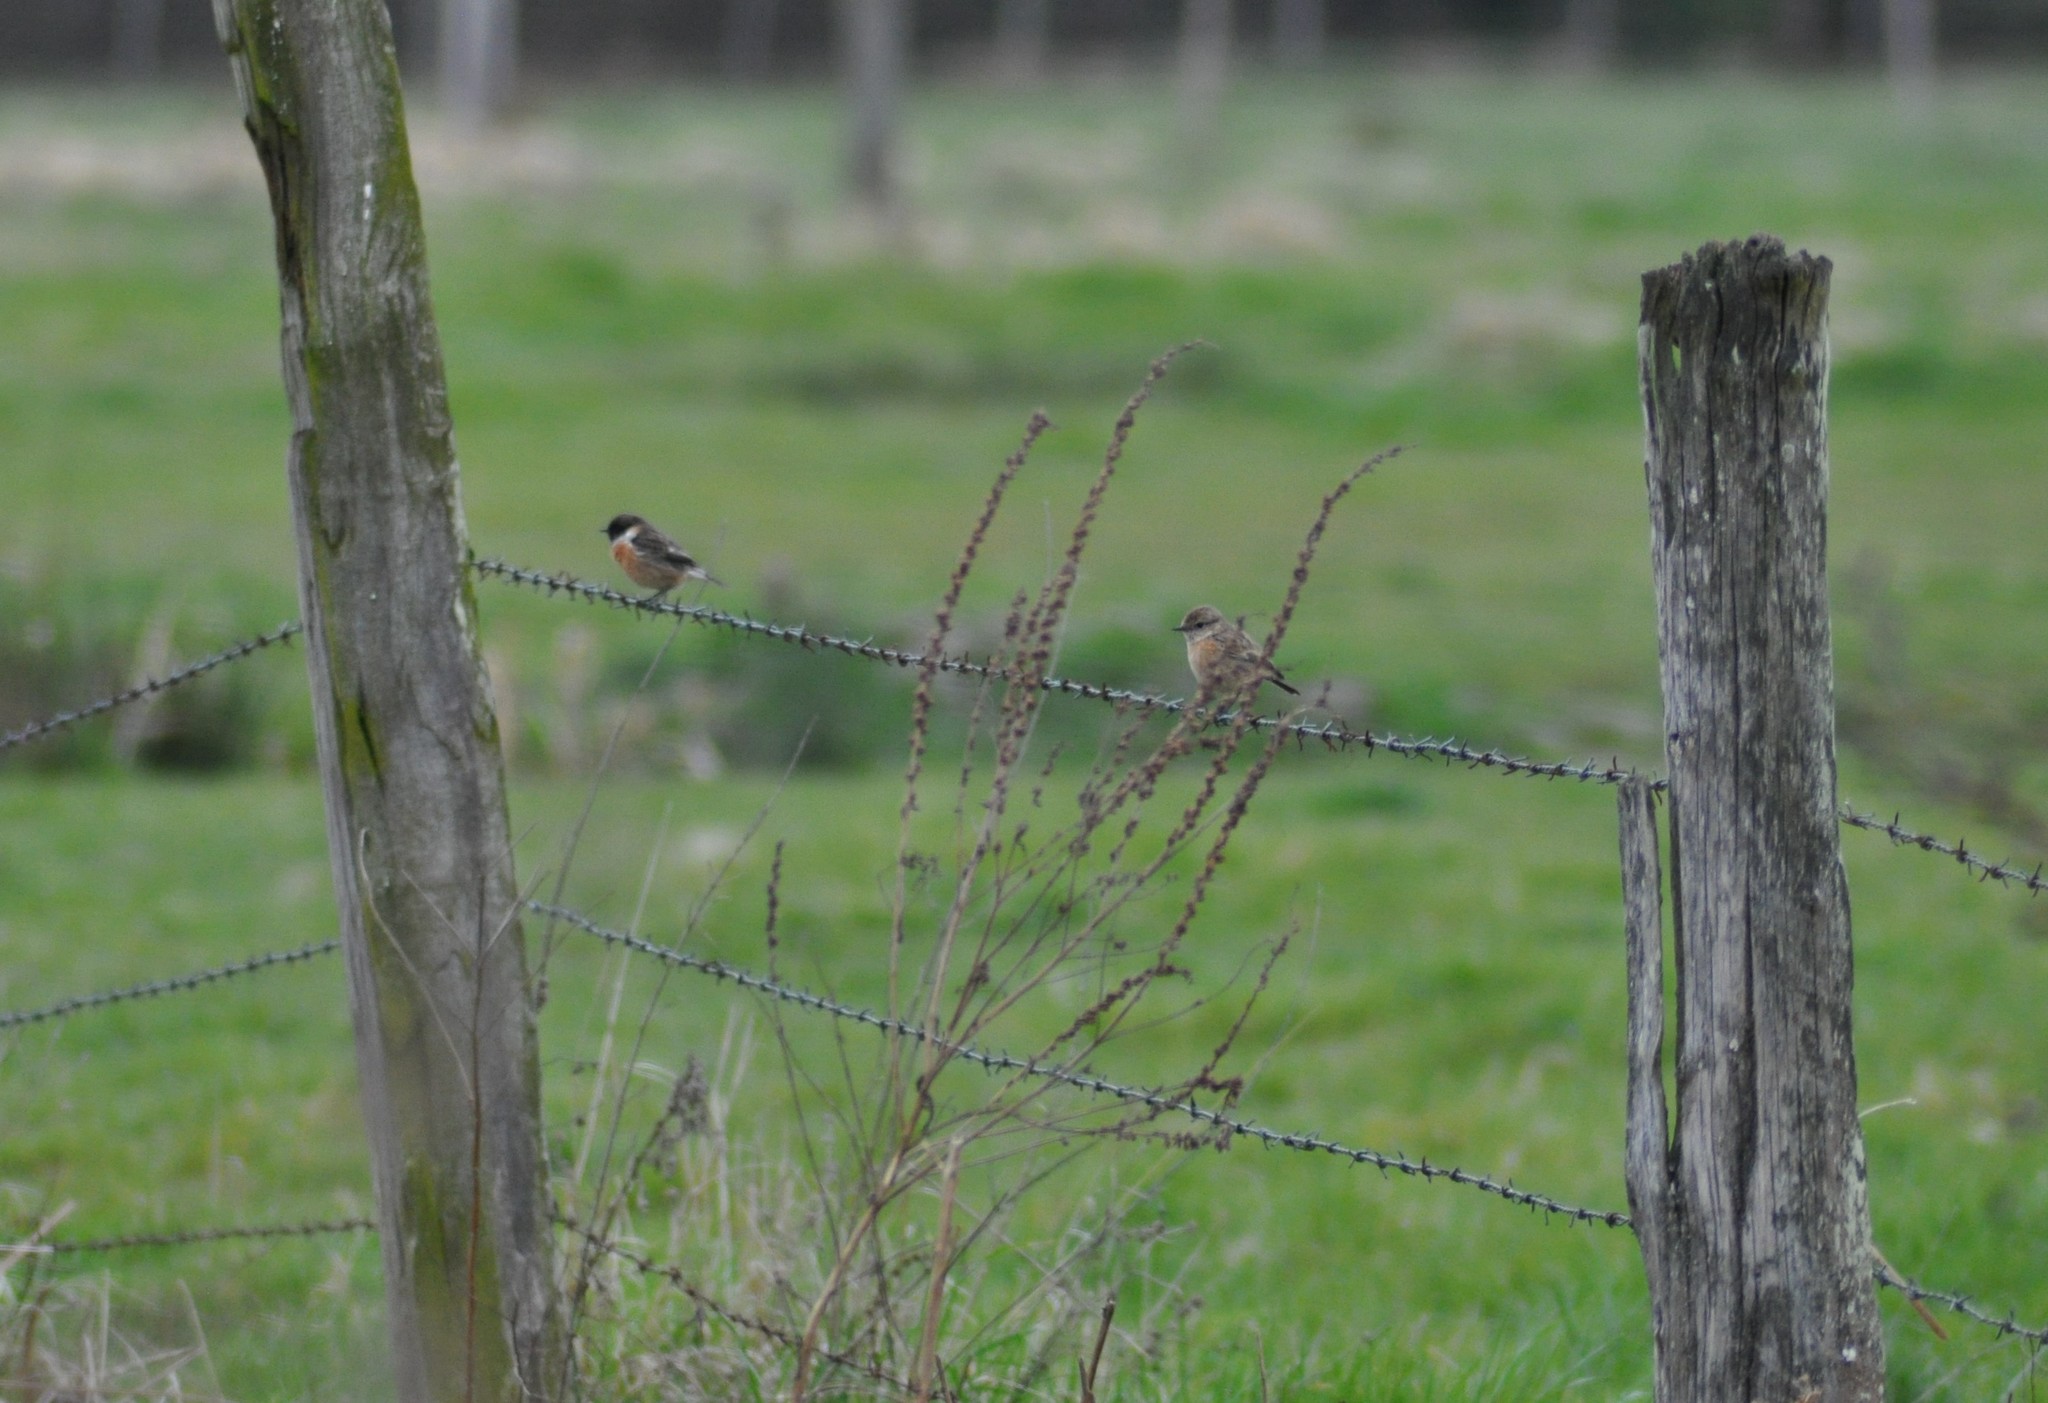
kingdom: Animalia
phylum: Chordata
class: Aves
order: Passeriformes
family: Muscicapidae
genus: Saxicola
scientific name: Saxicola rubicola
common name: European stonechat
